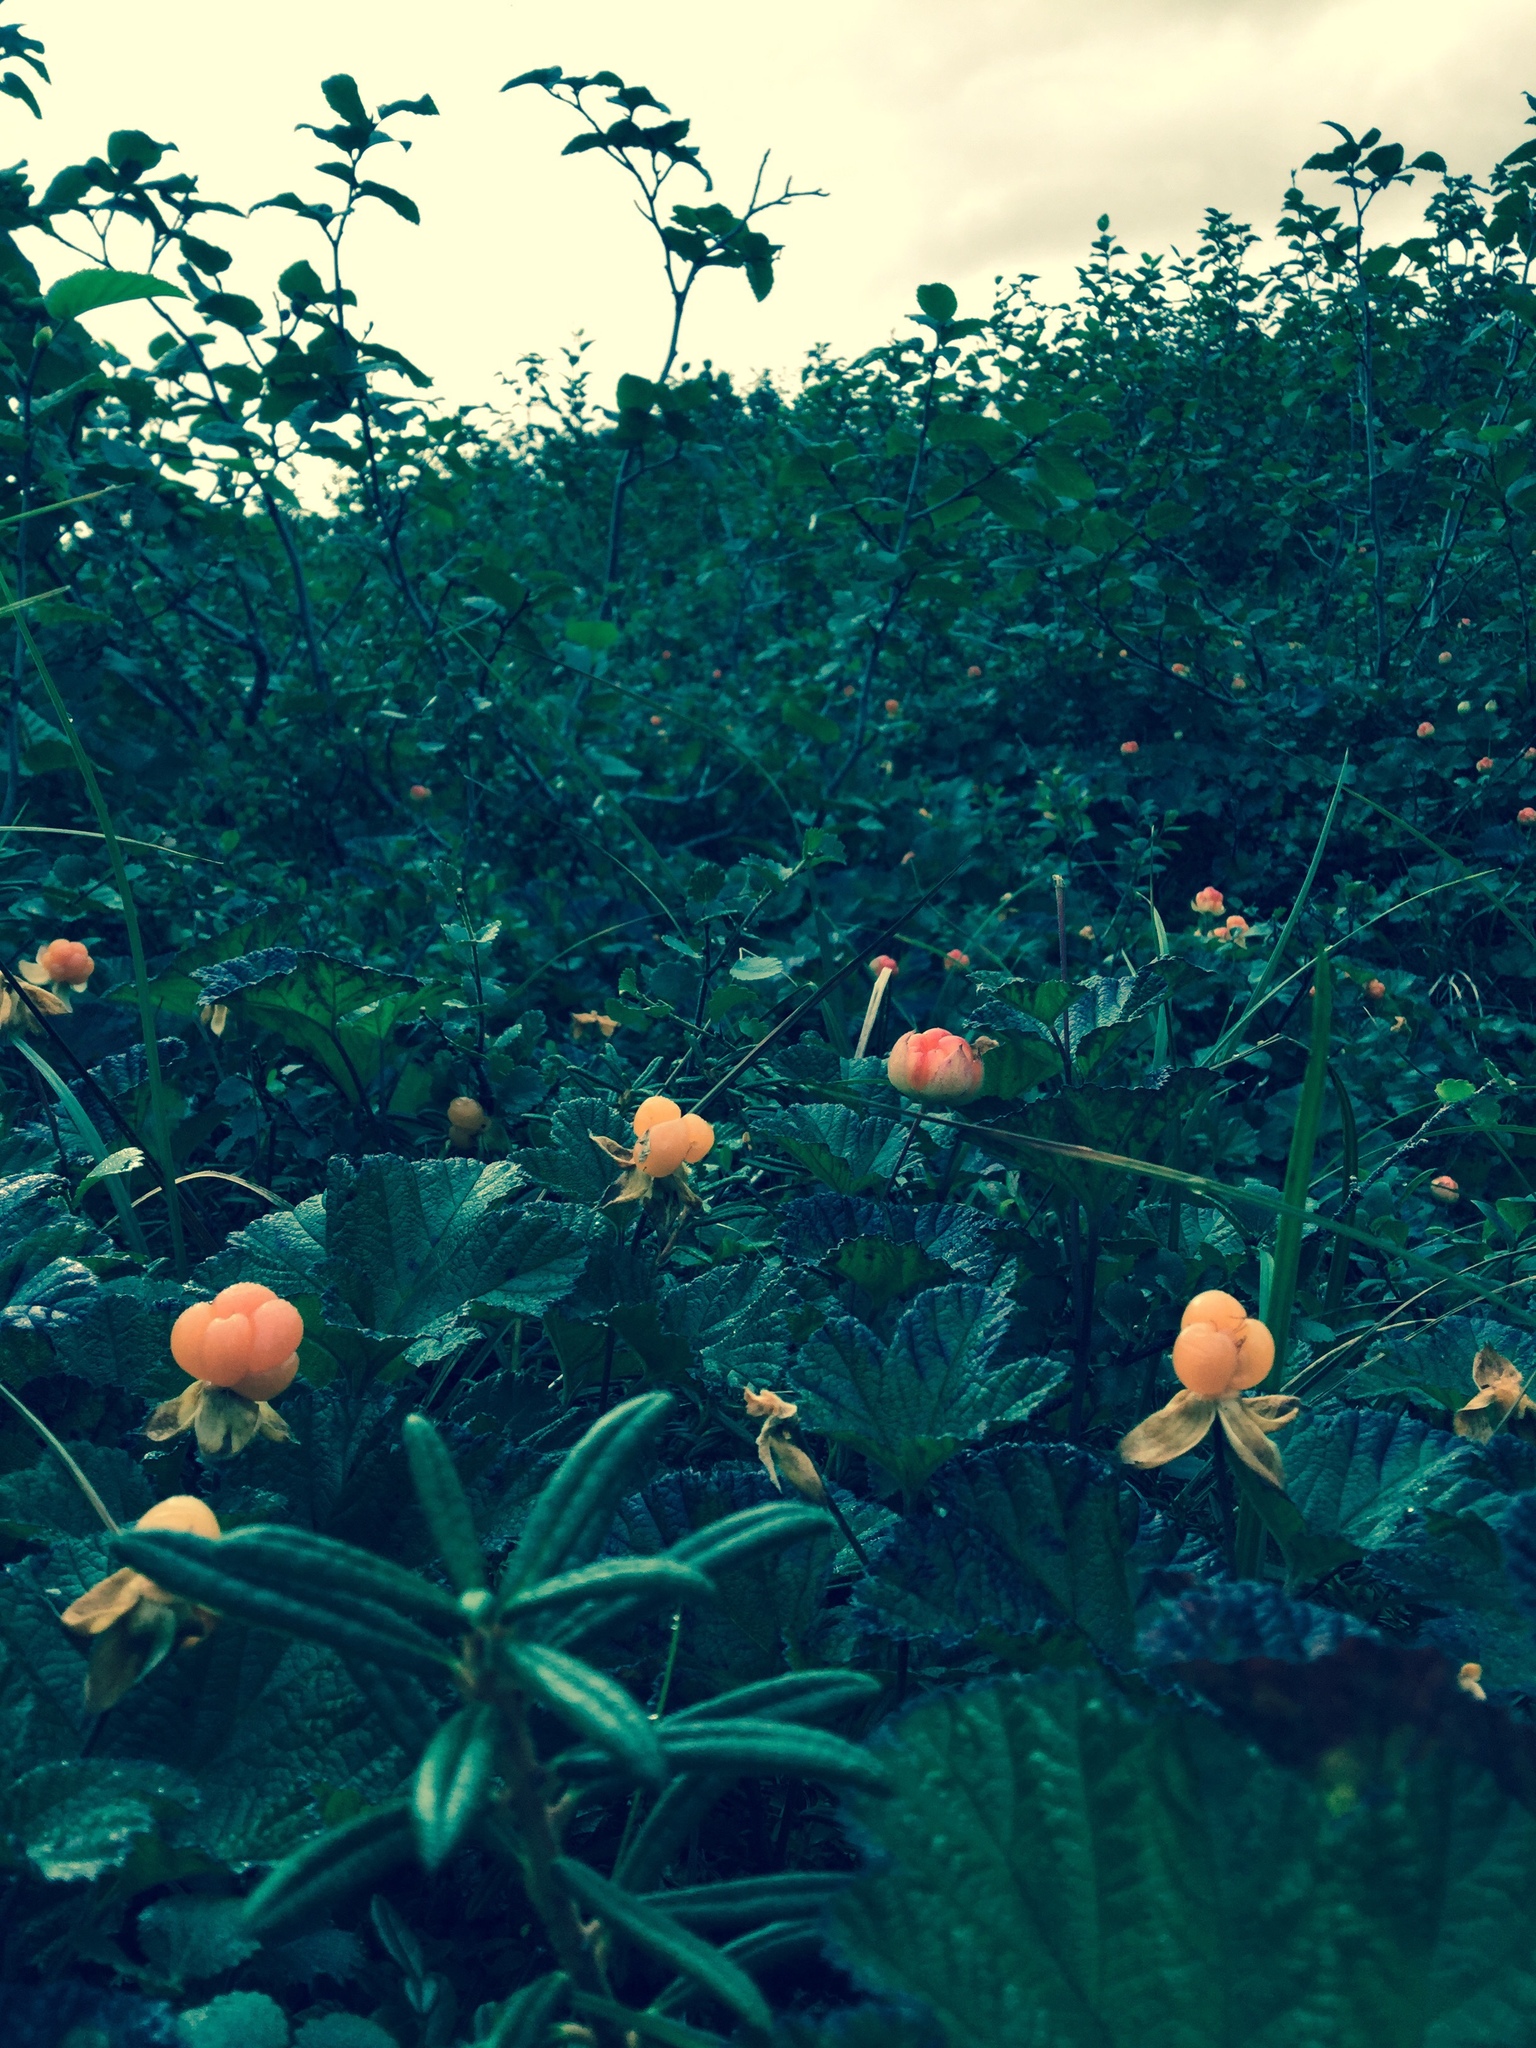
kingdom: Plantae
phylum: Tracheophyta
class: Magnoliopsida
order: Rosales
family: Rosaceae
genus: Rubus
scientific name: Rubus chamaemorus
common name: Cloudberry
